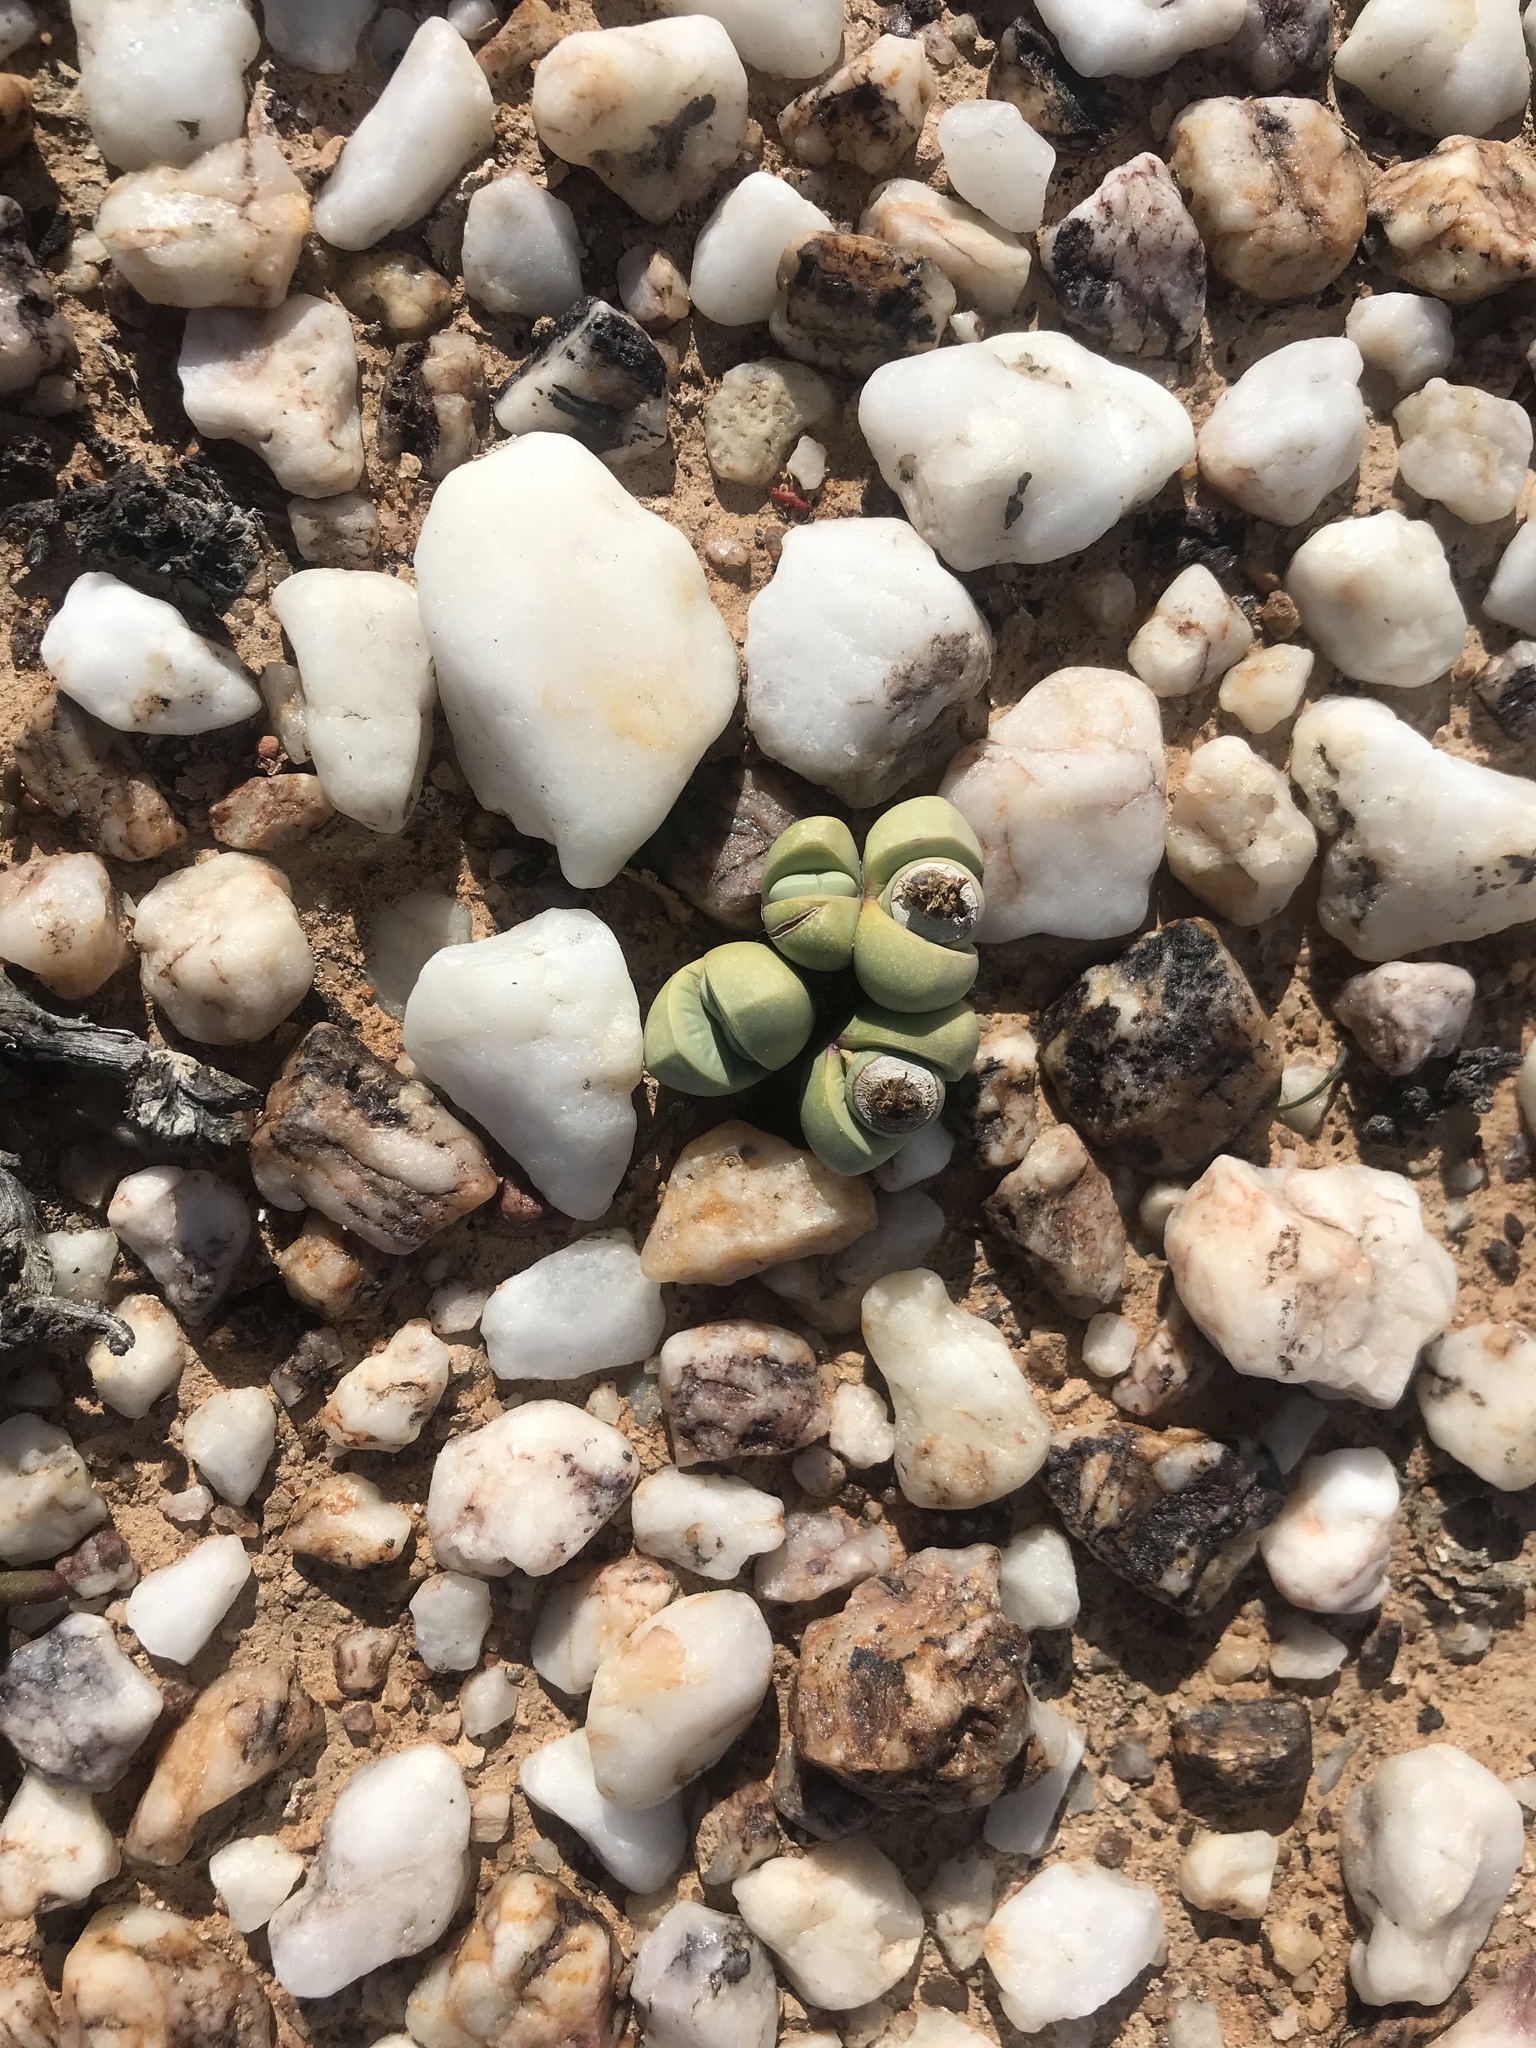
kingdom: Plantae
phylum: Tracheophyta
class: Magnoliopsida
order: Caryophyllales
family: Aizoaceae
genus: Argyroderma
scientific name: Argyroderma framesii
